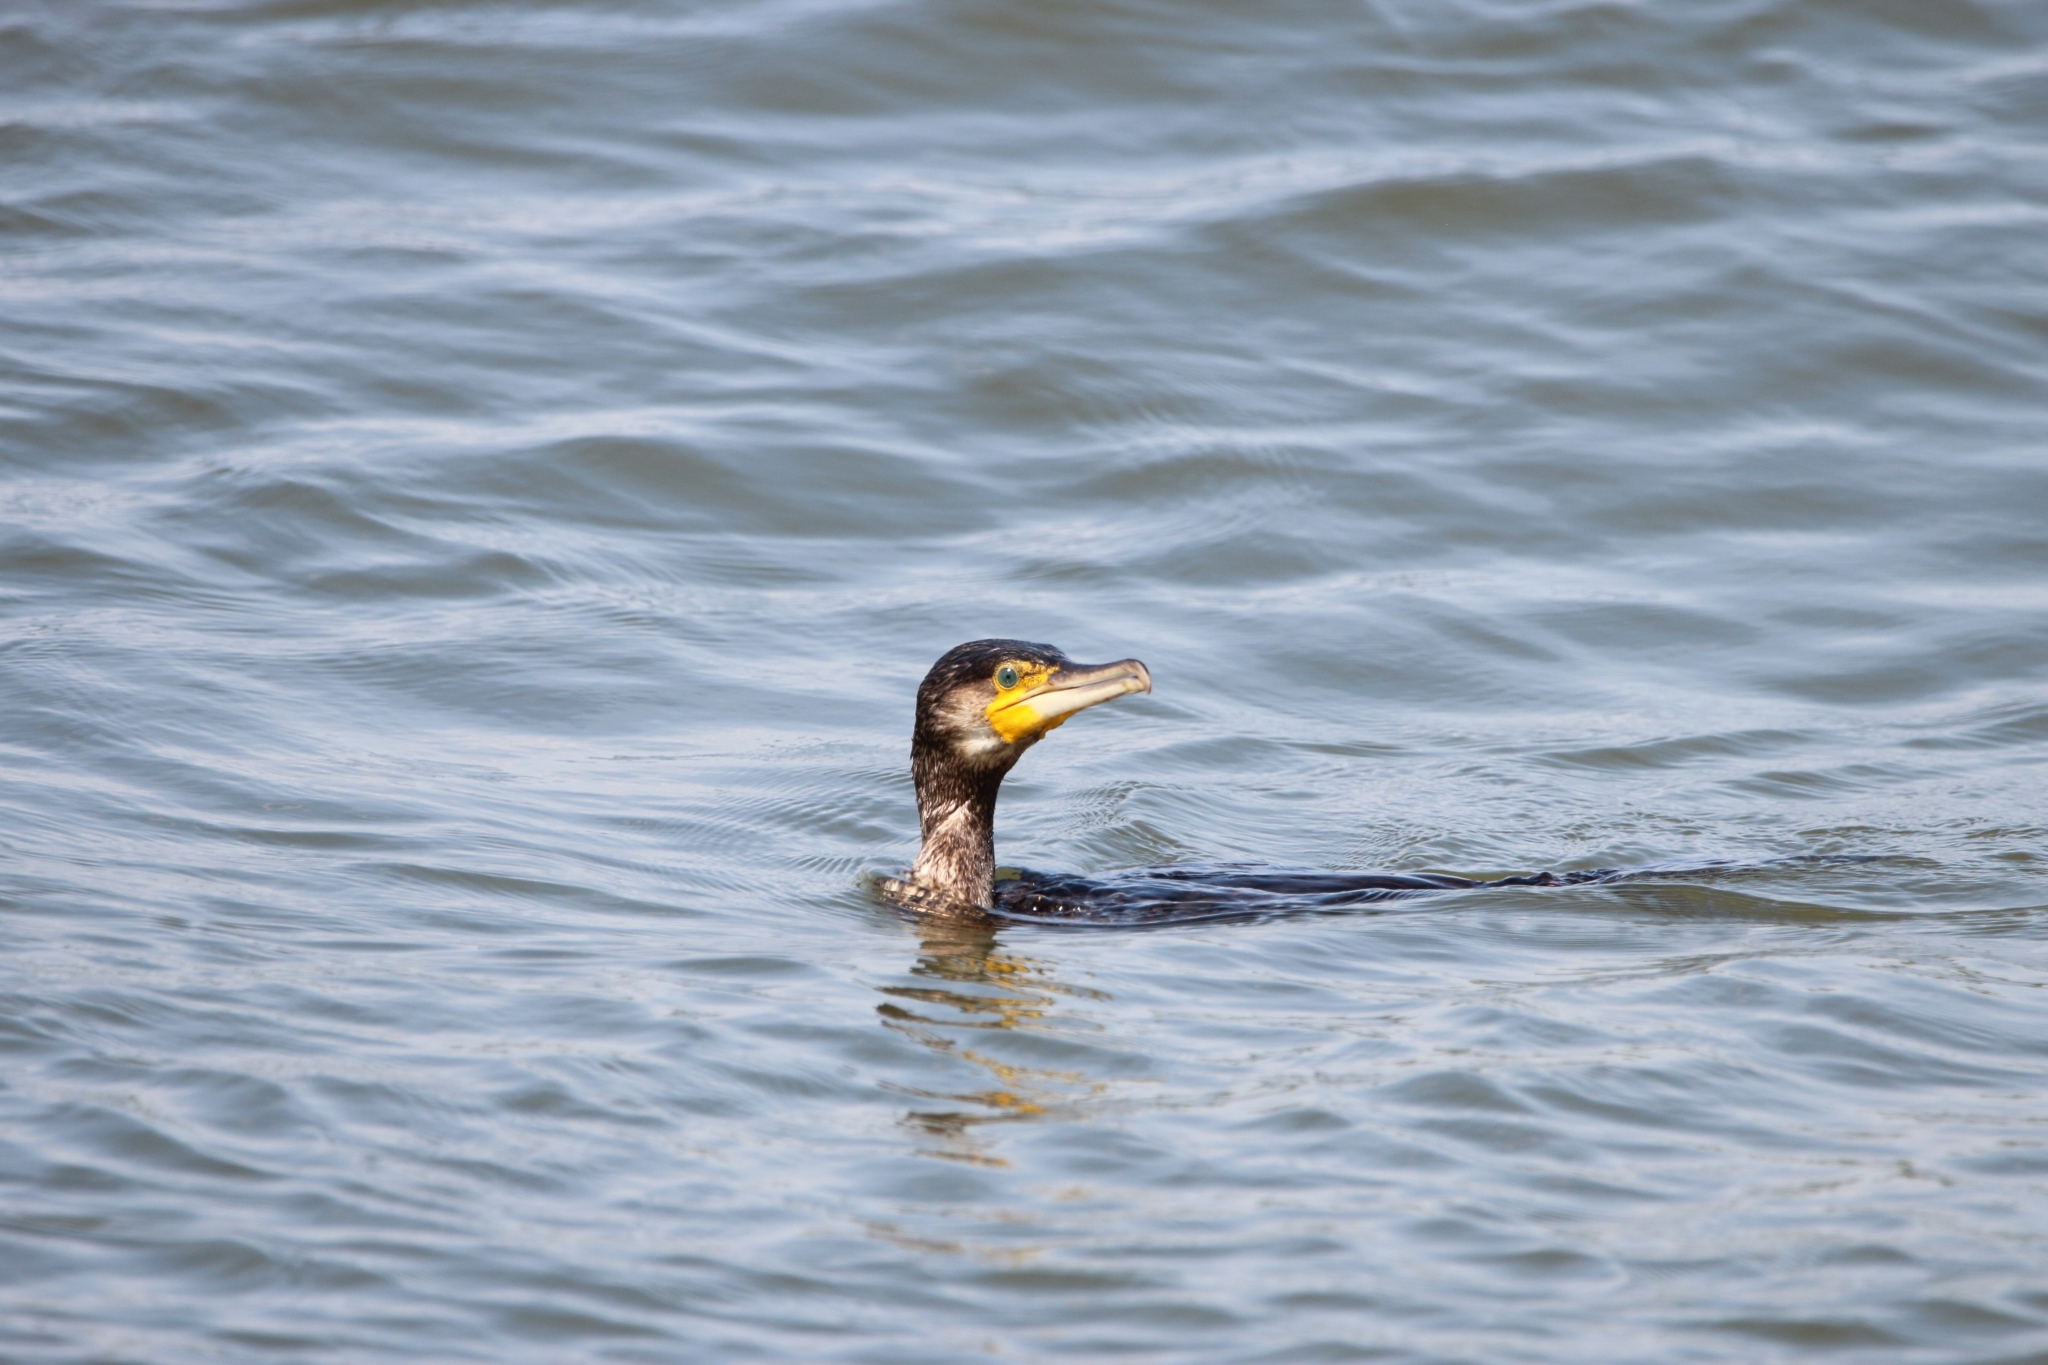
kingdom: Animalia
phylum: Chordata
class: Aves
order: Suliformes
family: Phalacrocoracidae
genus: Phalacrocorax
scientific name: Phalacrocorax carbo
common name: Great cormorant
